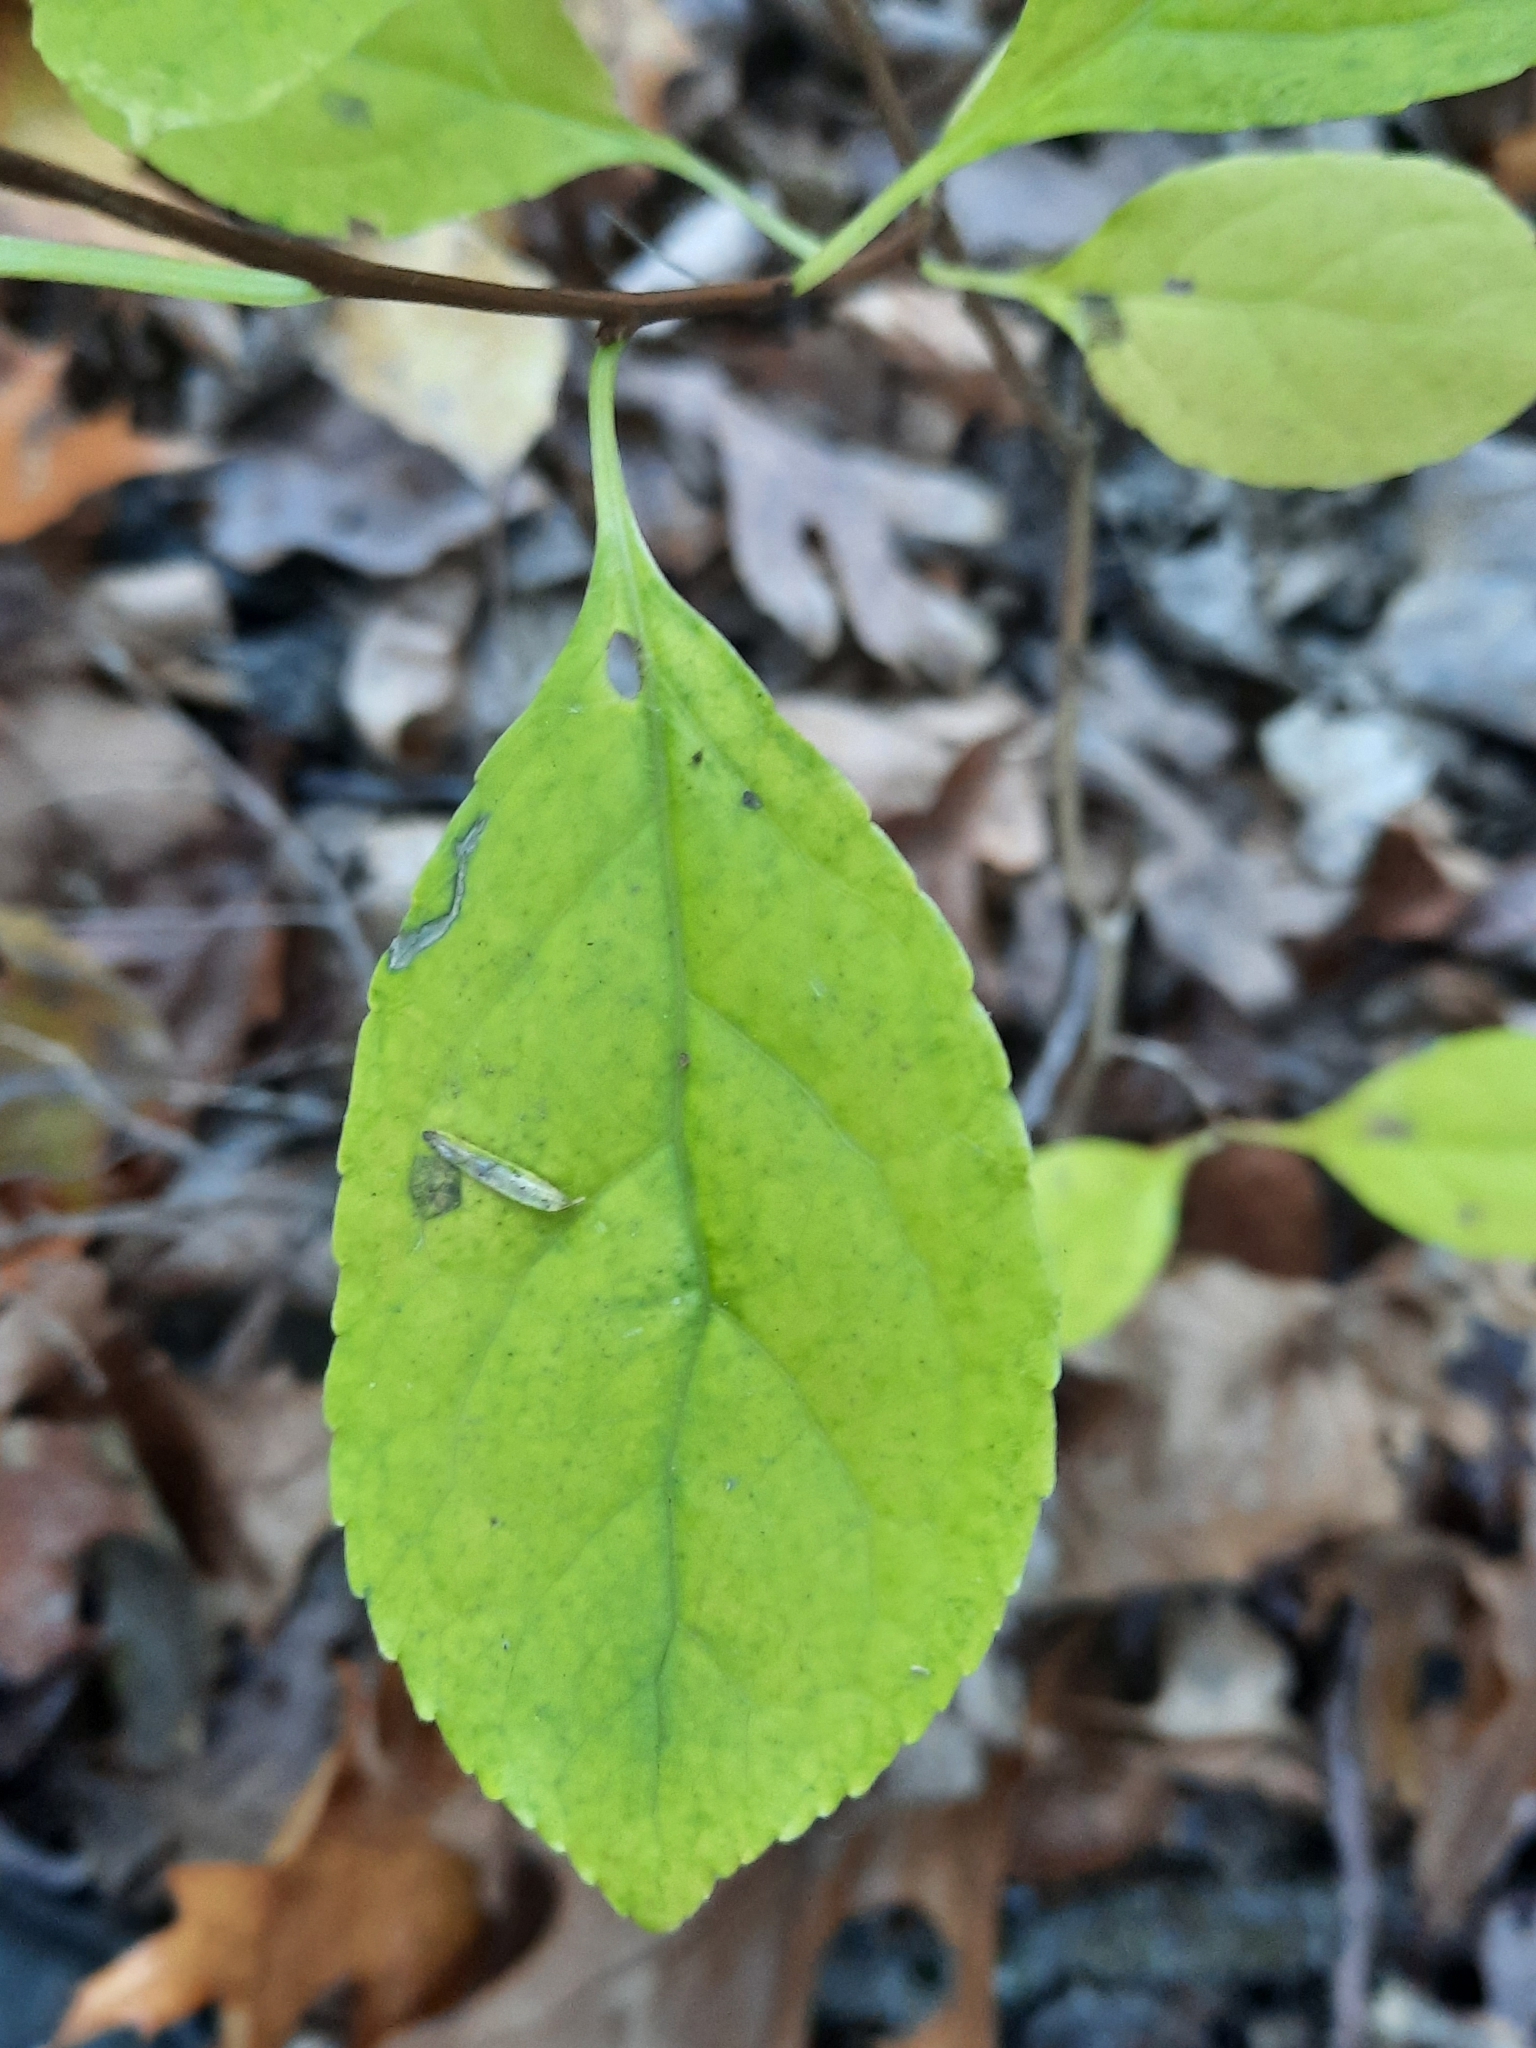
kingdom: Plantae
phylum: Tracheophyta
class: Magnoliopsida
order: Celastrales
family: Celastraceae
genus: Celastrus
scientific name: Celastrus orbiculatus
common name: Oriental bittersweet
